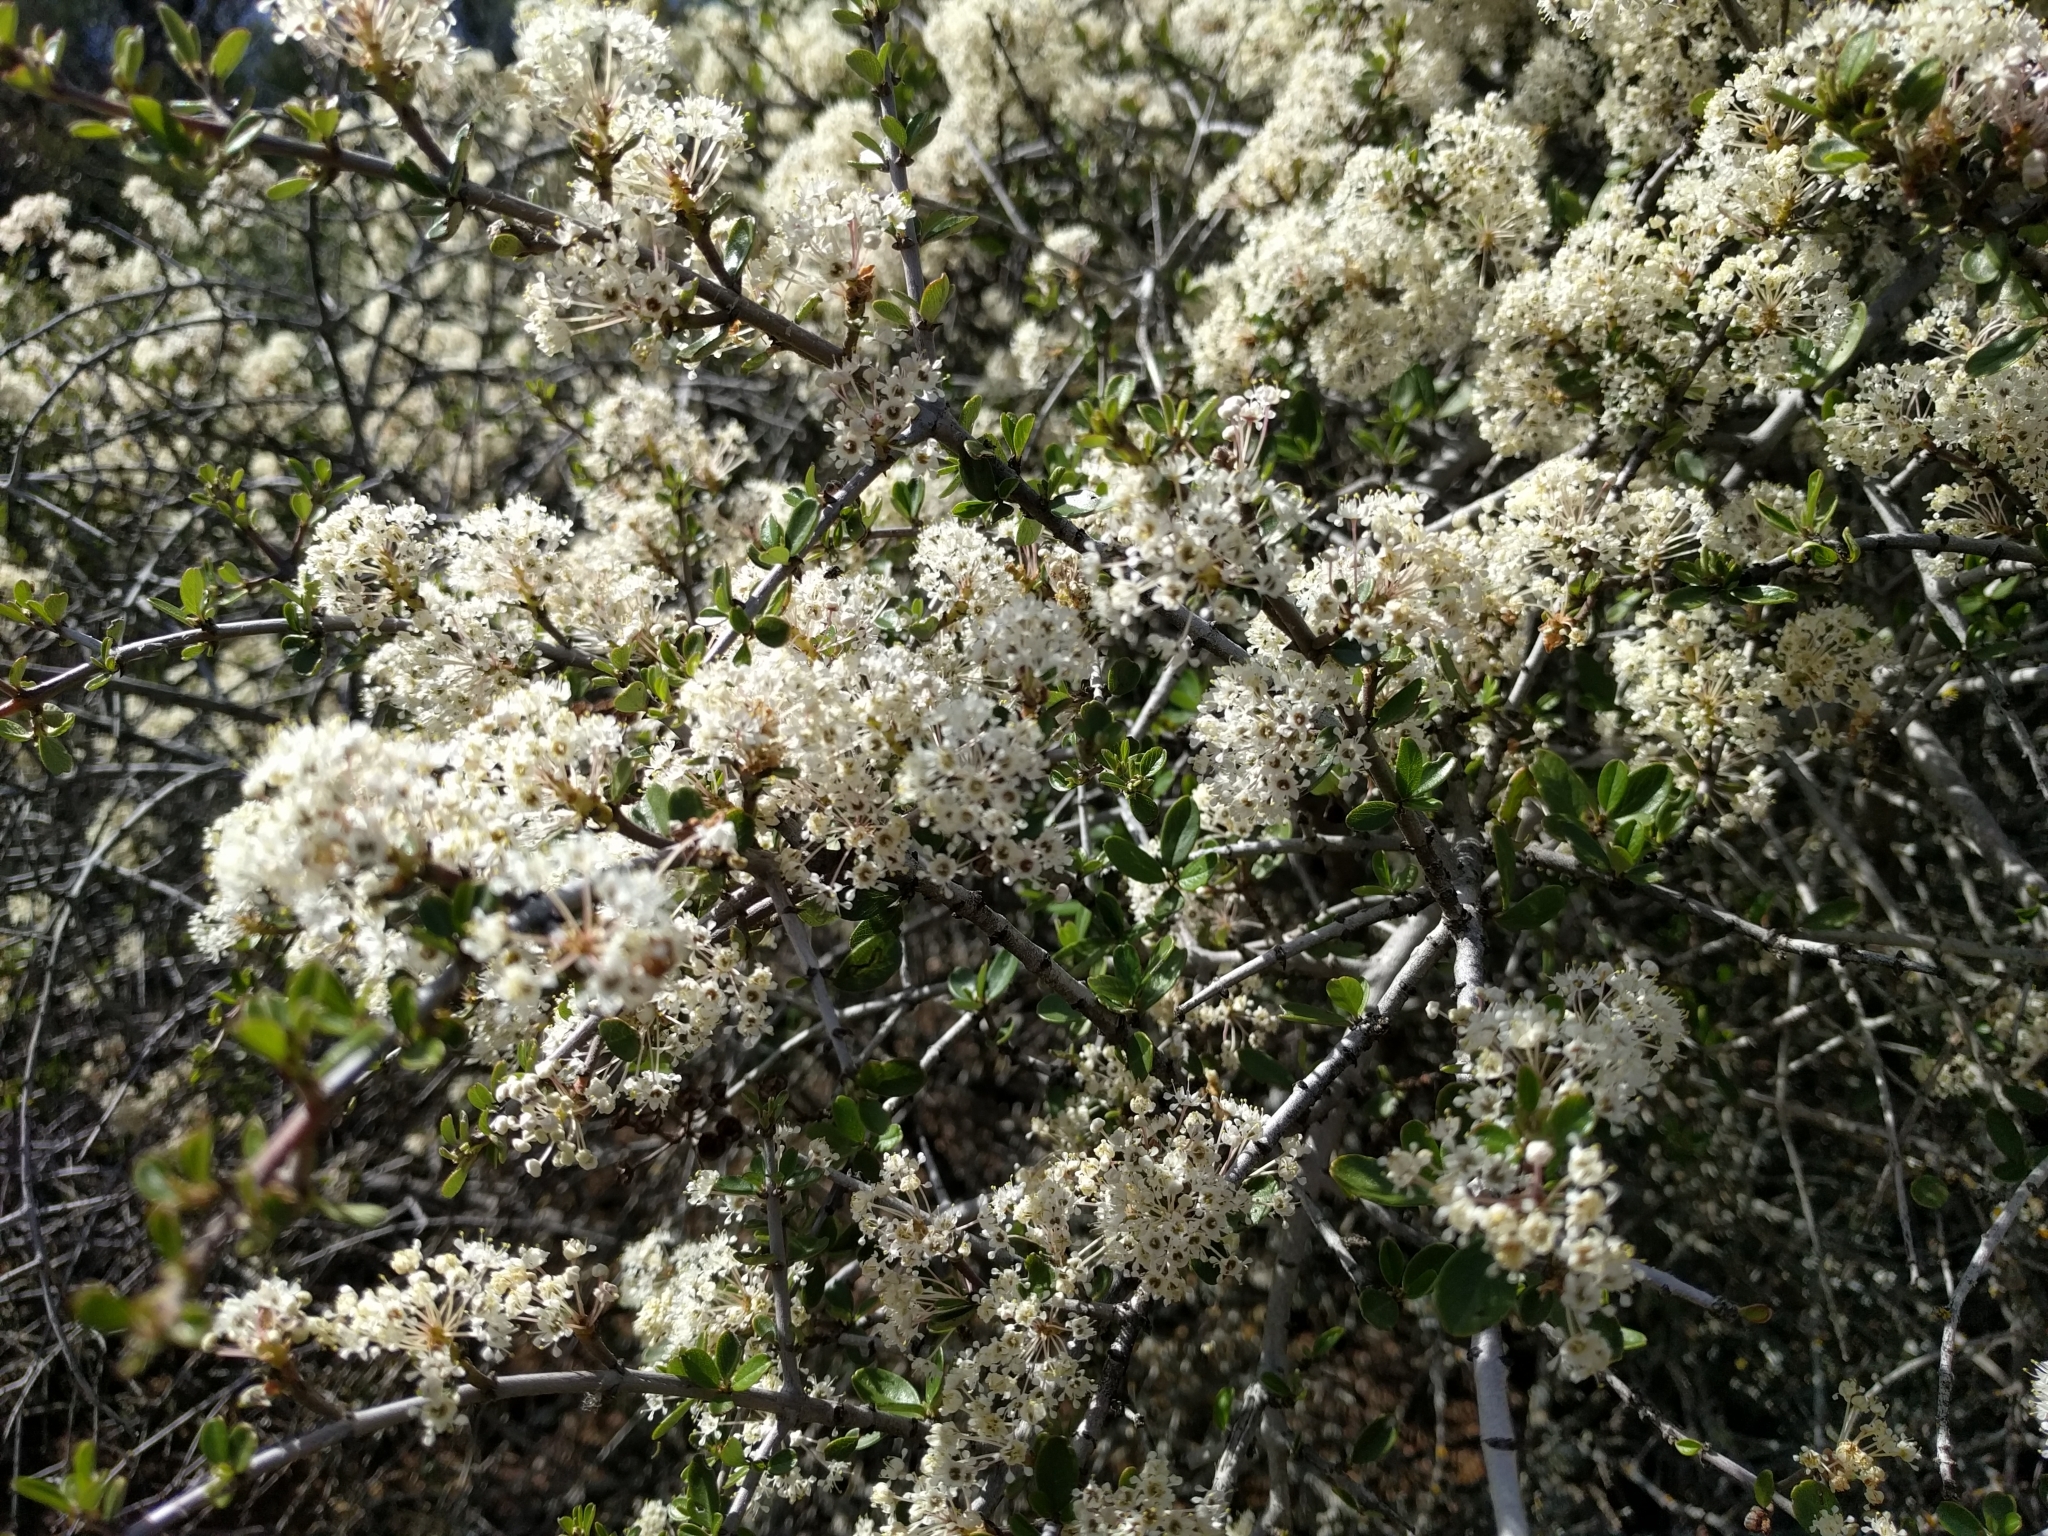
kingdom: Plantae
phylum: Tracheophyta
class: Magnoliopsida
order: Rosales
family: Rhamnaceae
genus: Ceanothus
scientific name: Ceanothus cuneatus
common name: Cuneate ceanothus
